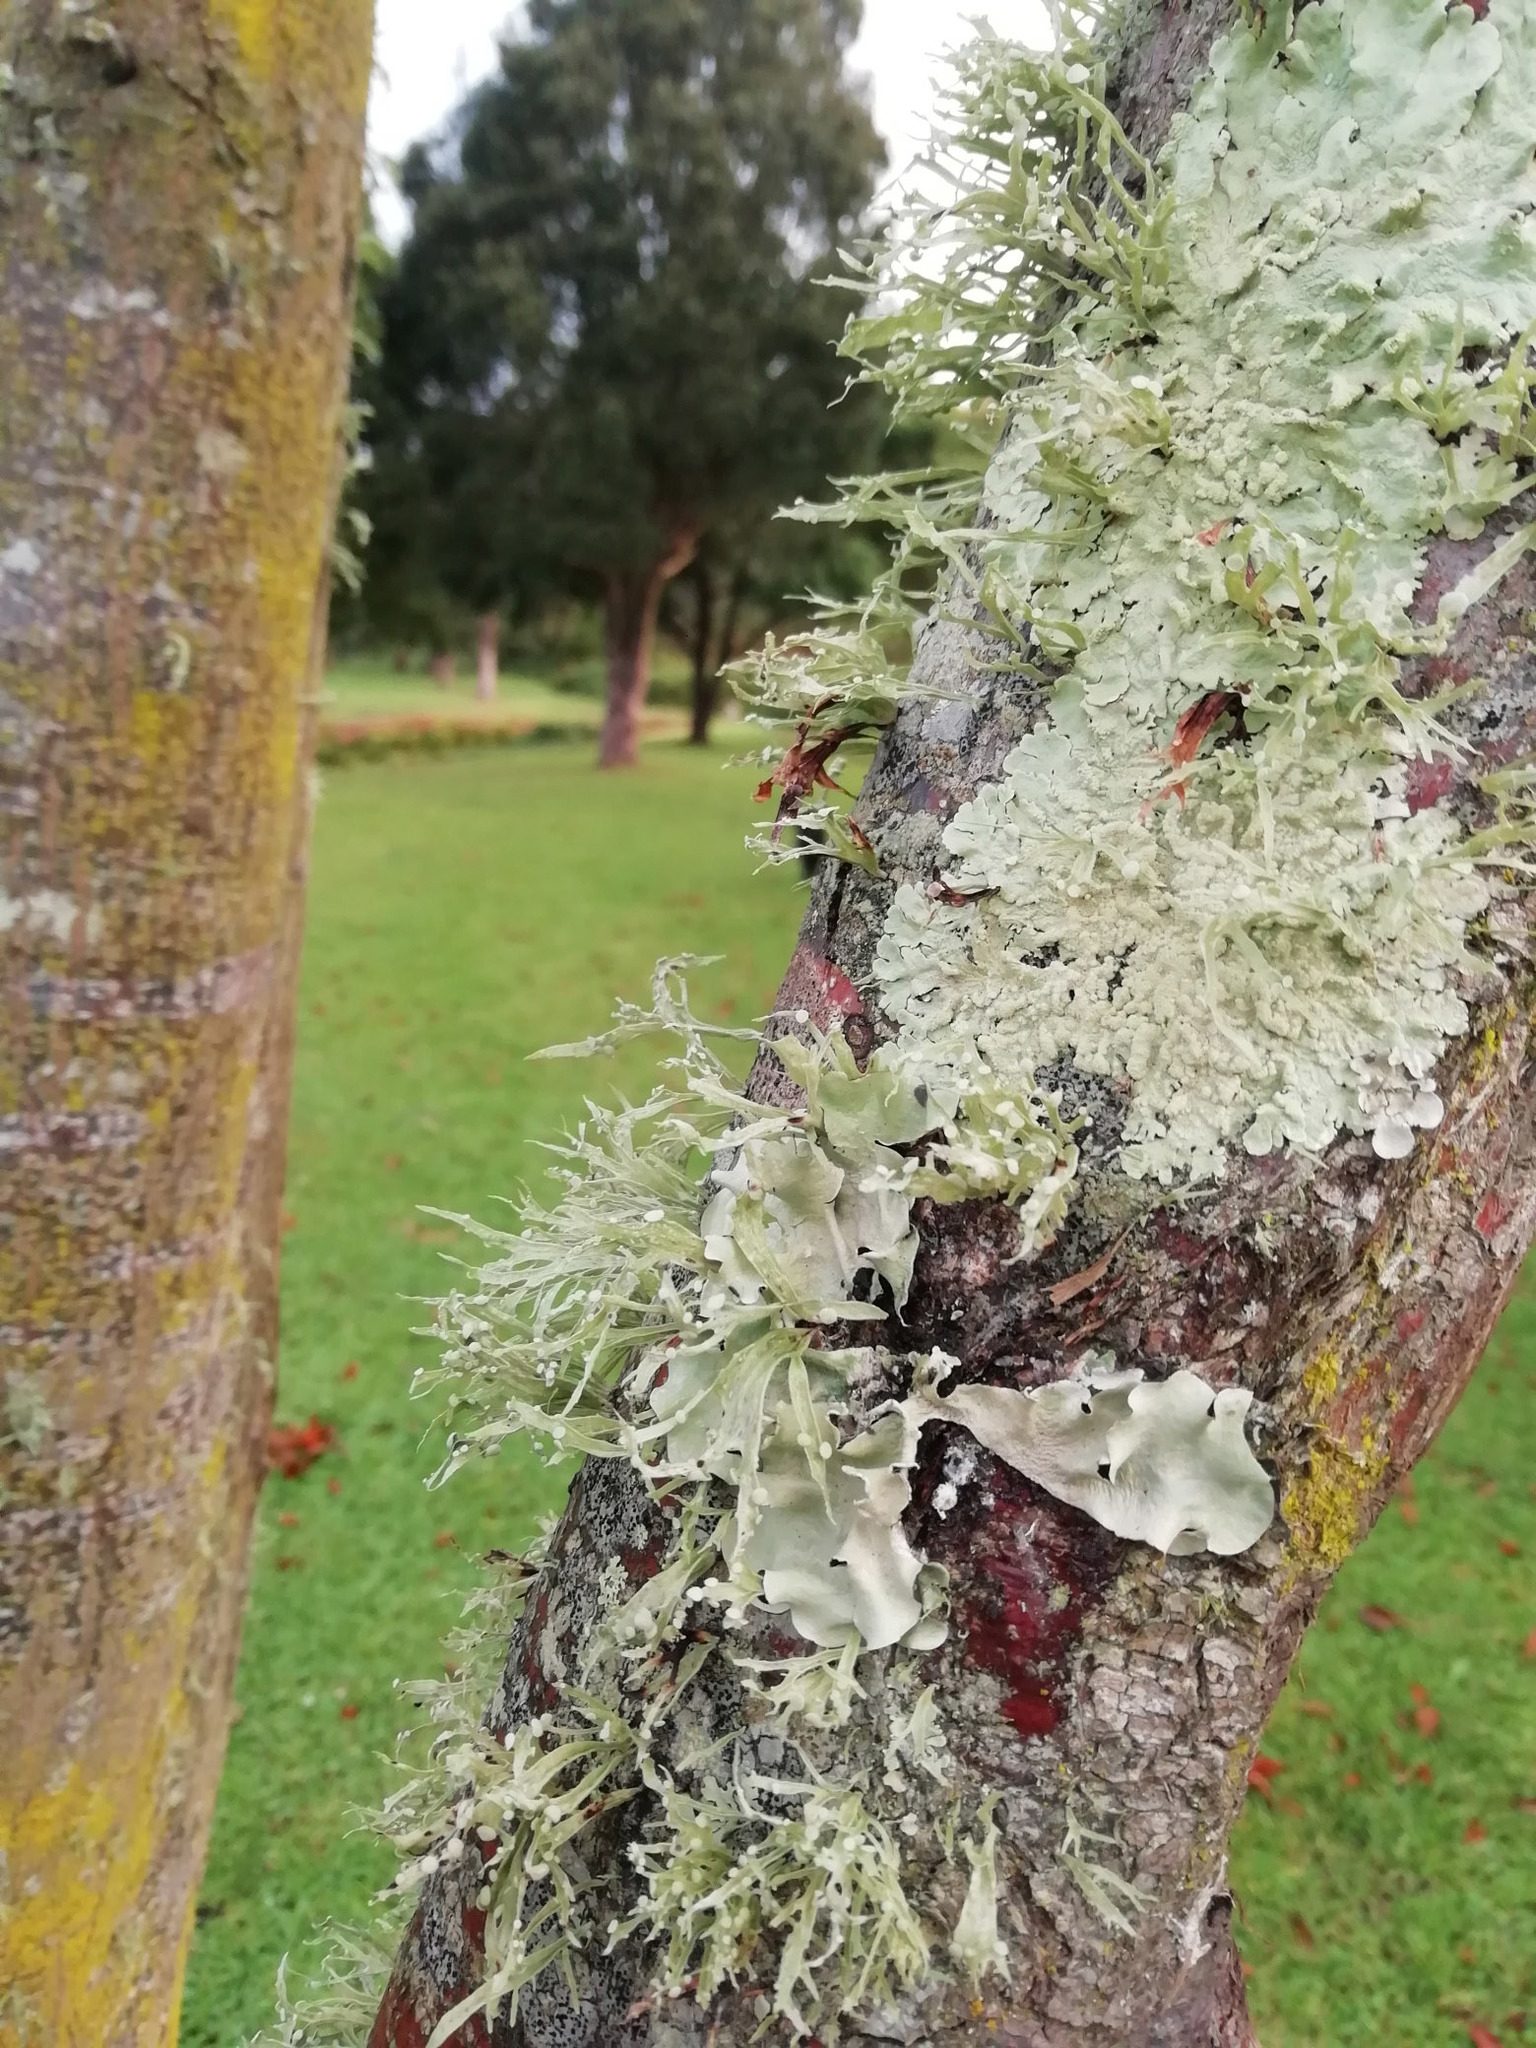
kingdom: Fungi
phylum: Ascomycota
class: Lecanoromycetes
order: Lecanorales
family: Ramalinaceae
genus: Ramalina
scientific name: Ramalina celastri
